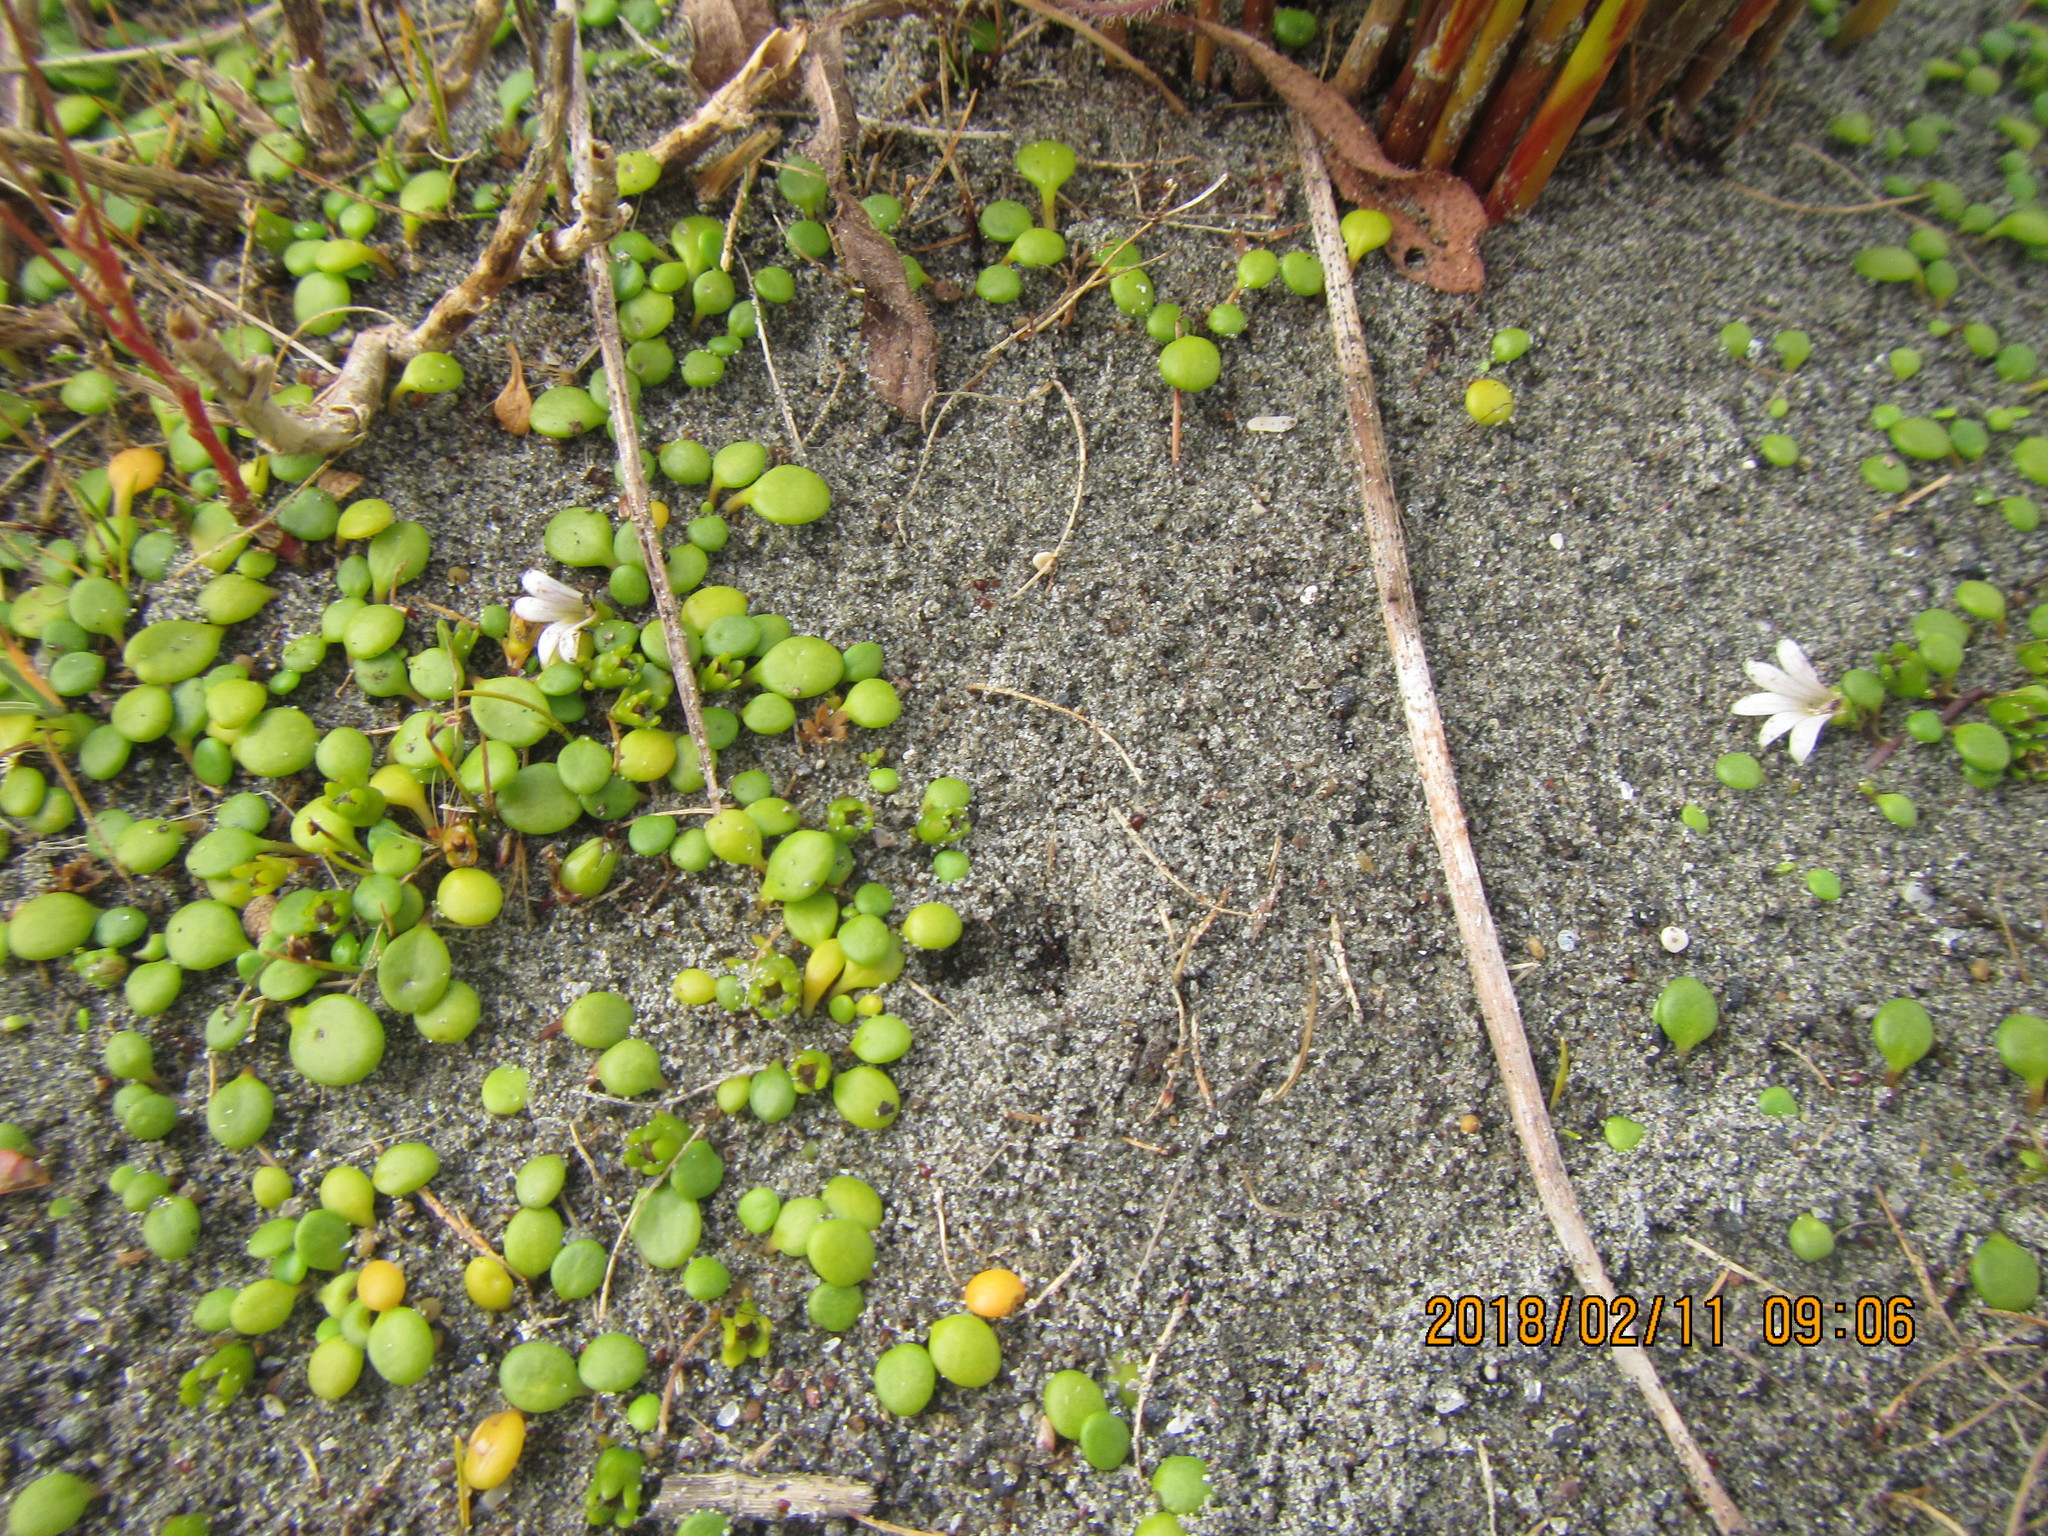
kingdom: Plantae
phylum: Tracheophyta
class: Magnoliopsida
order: Asterales
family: Goodeniaceae
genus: Goodenia
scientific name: Goodenia heenanii
